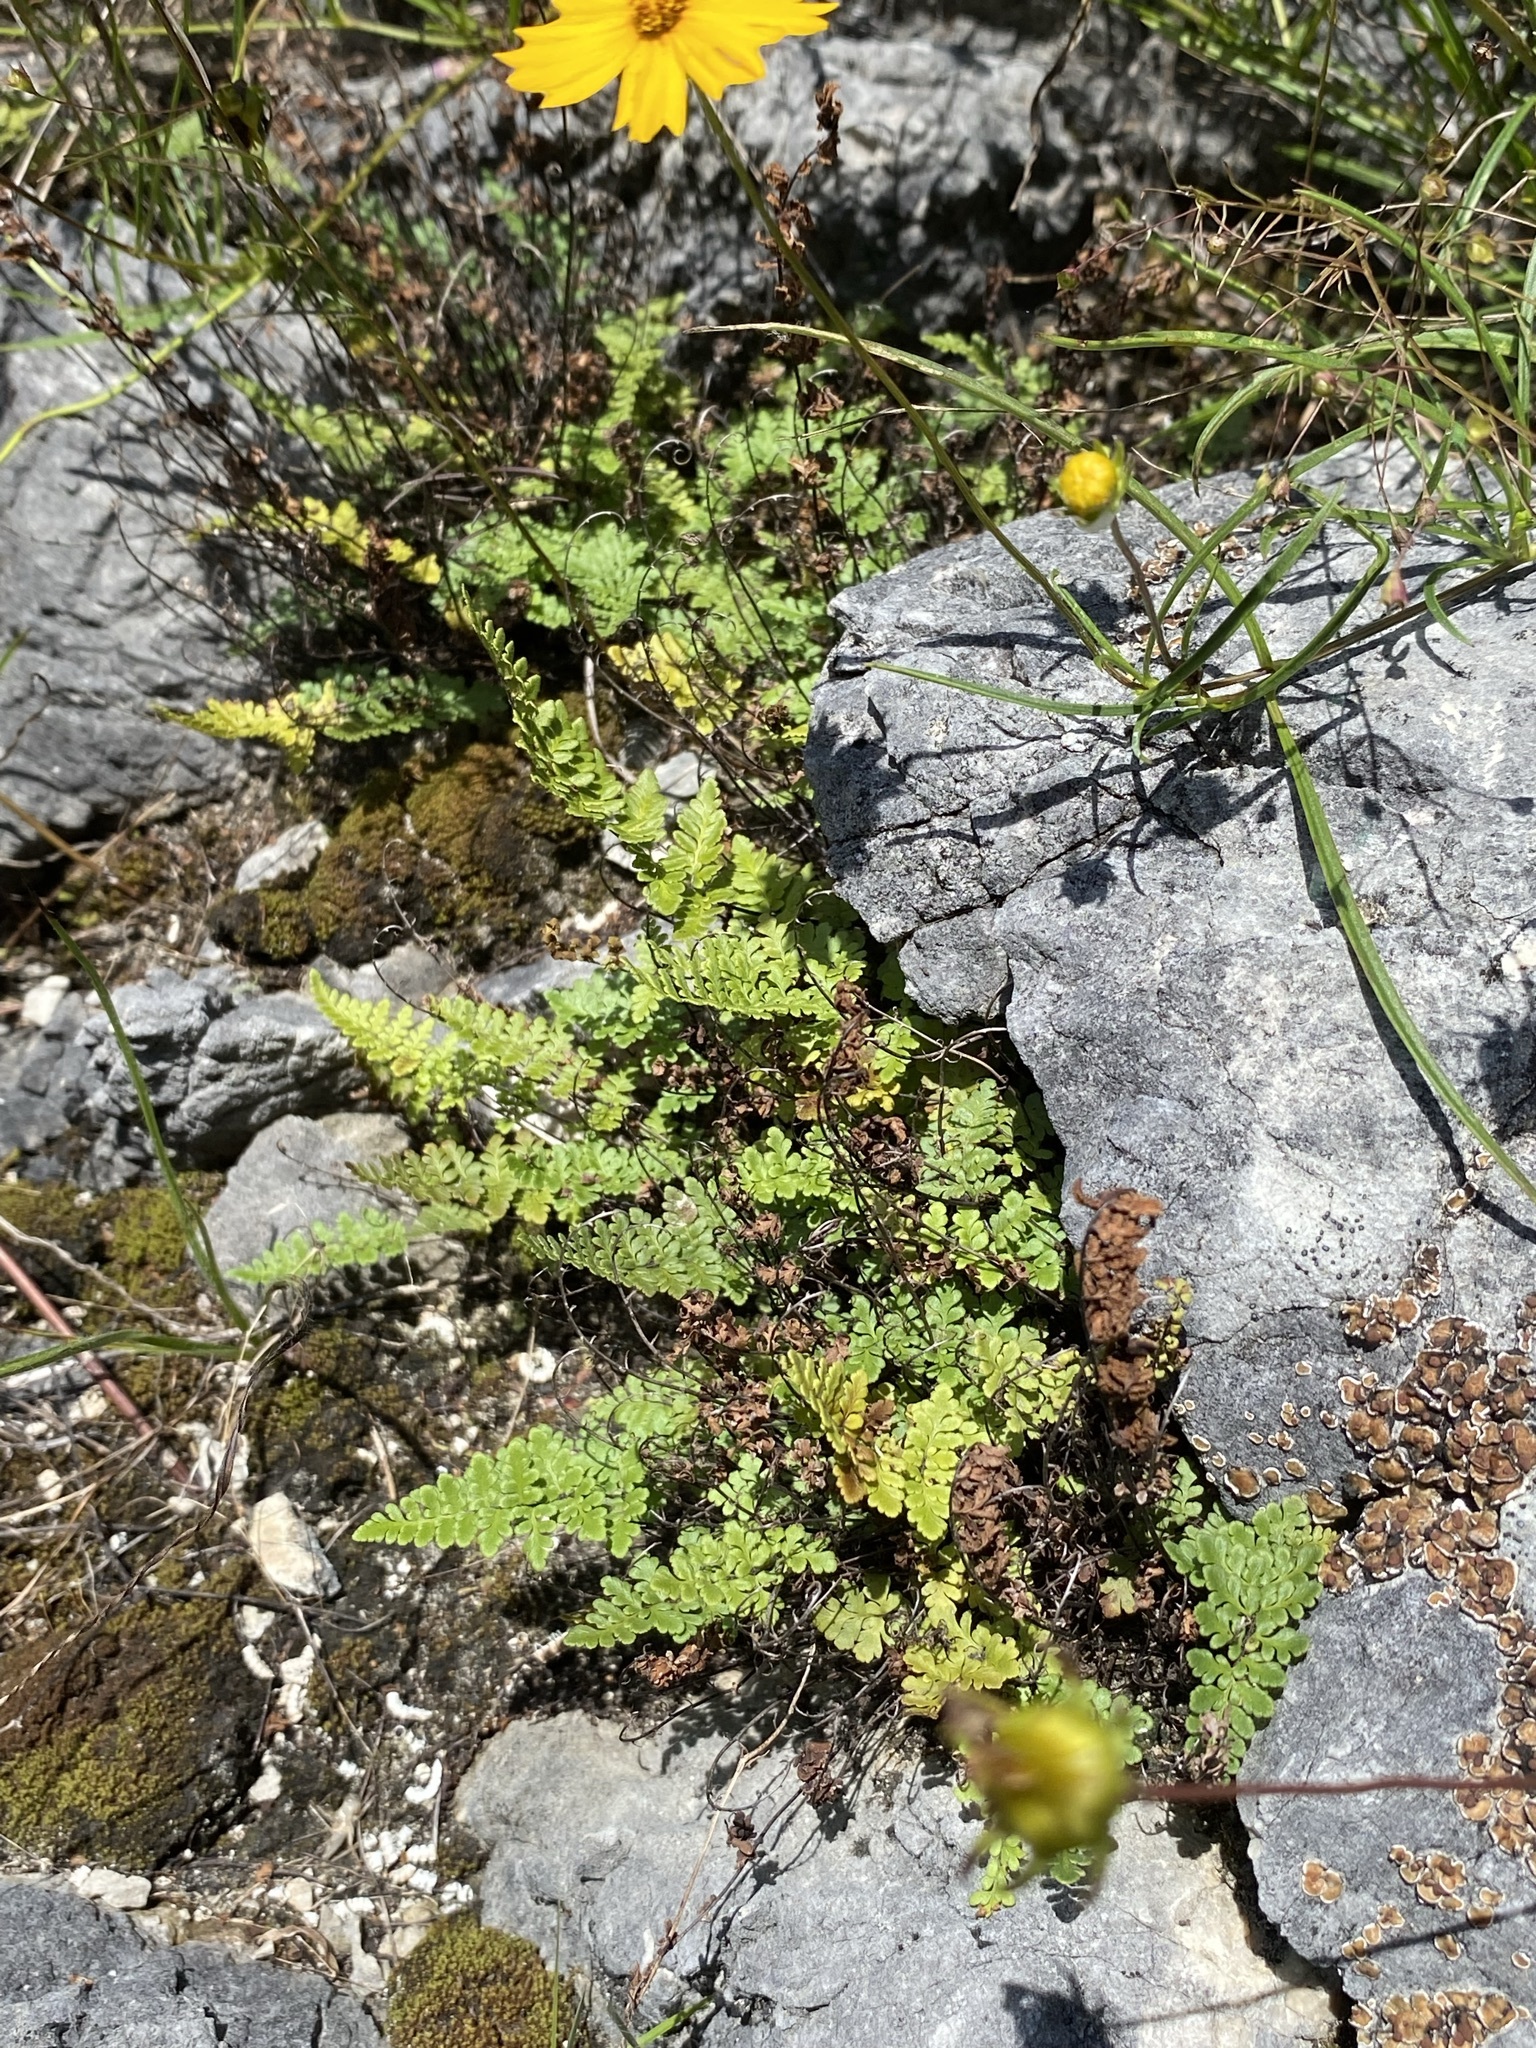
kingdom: Plantae
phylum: Tracheophyta
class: Polypodiopsida
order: Polypodiales
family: Pteridaceae
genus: Myriopteris
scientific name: Myriopteris alabamensis
